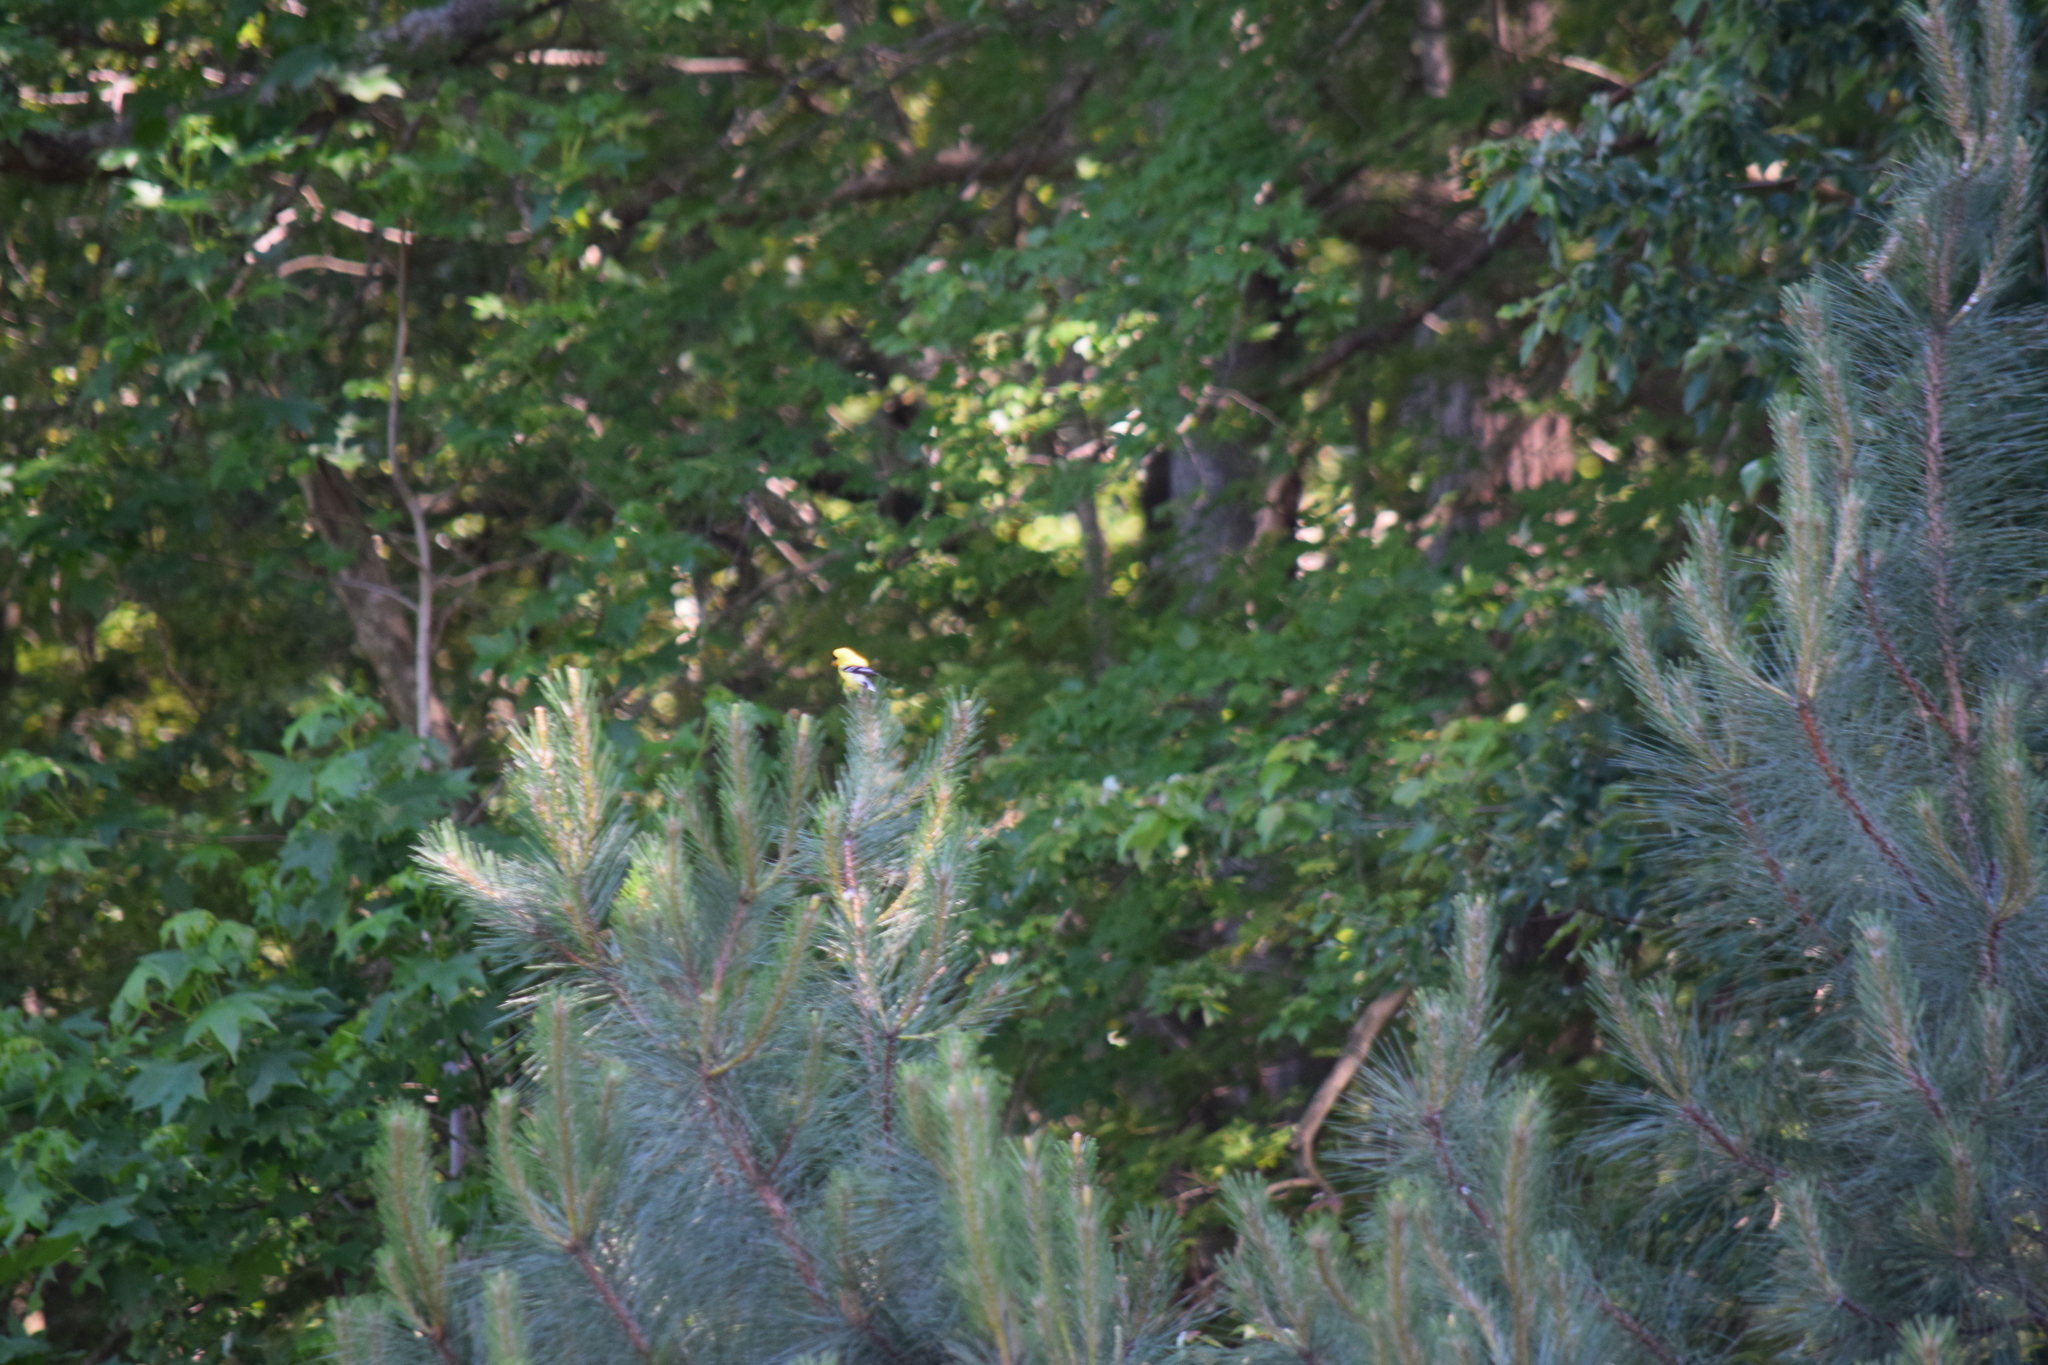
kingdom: Animalia
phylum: Chordata
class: Aves
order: Passeriformes
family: Fringillidae
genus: Spinus
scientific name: Spinus tristis
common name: American goldfinch
